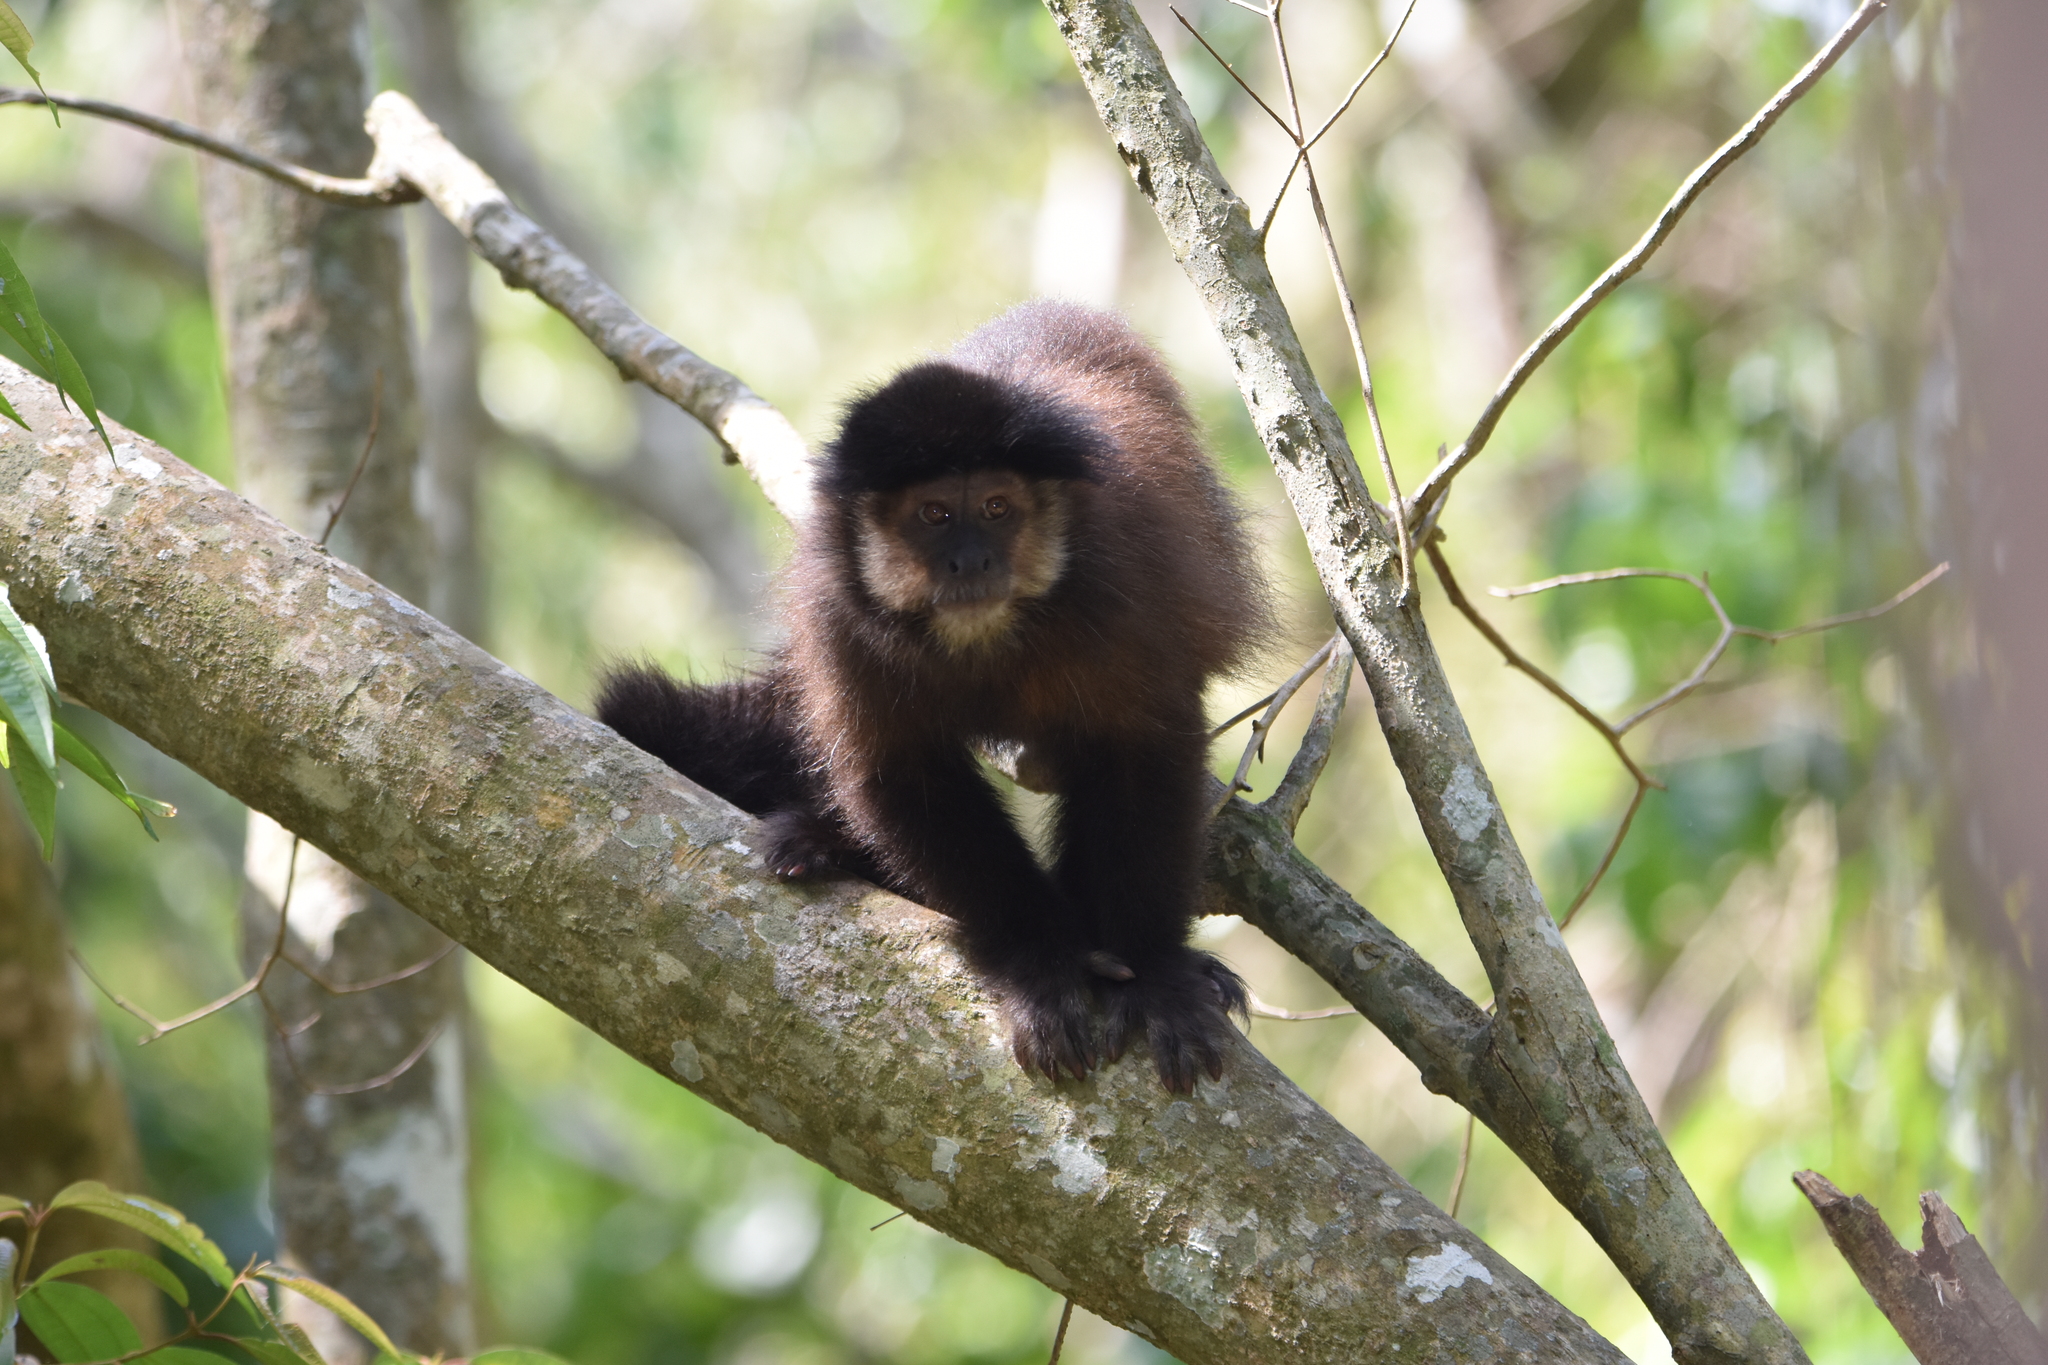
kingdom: Animalia
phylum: Chordata
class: Mammalia
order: Primates
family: Cebidae
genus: Sapajus
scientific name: Sapajus nigritus
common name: Black capuchin
